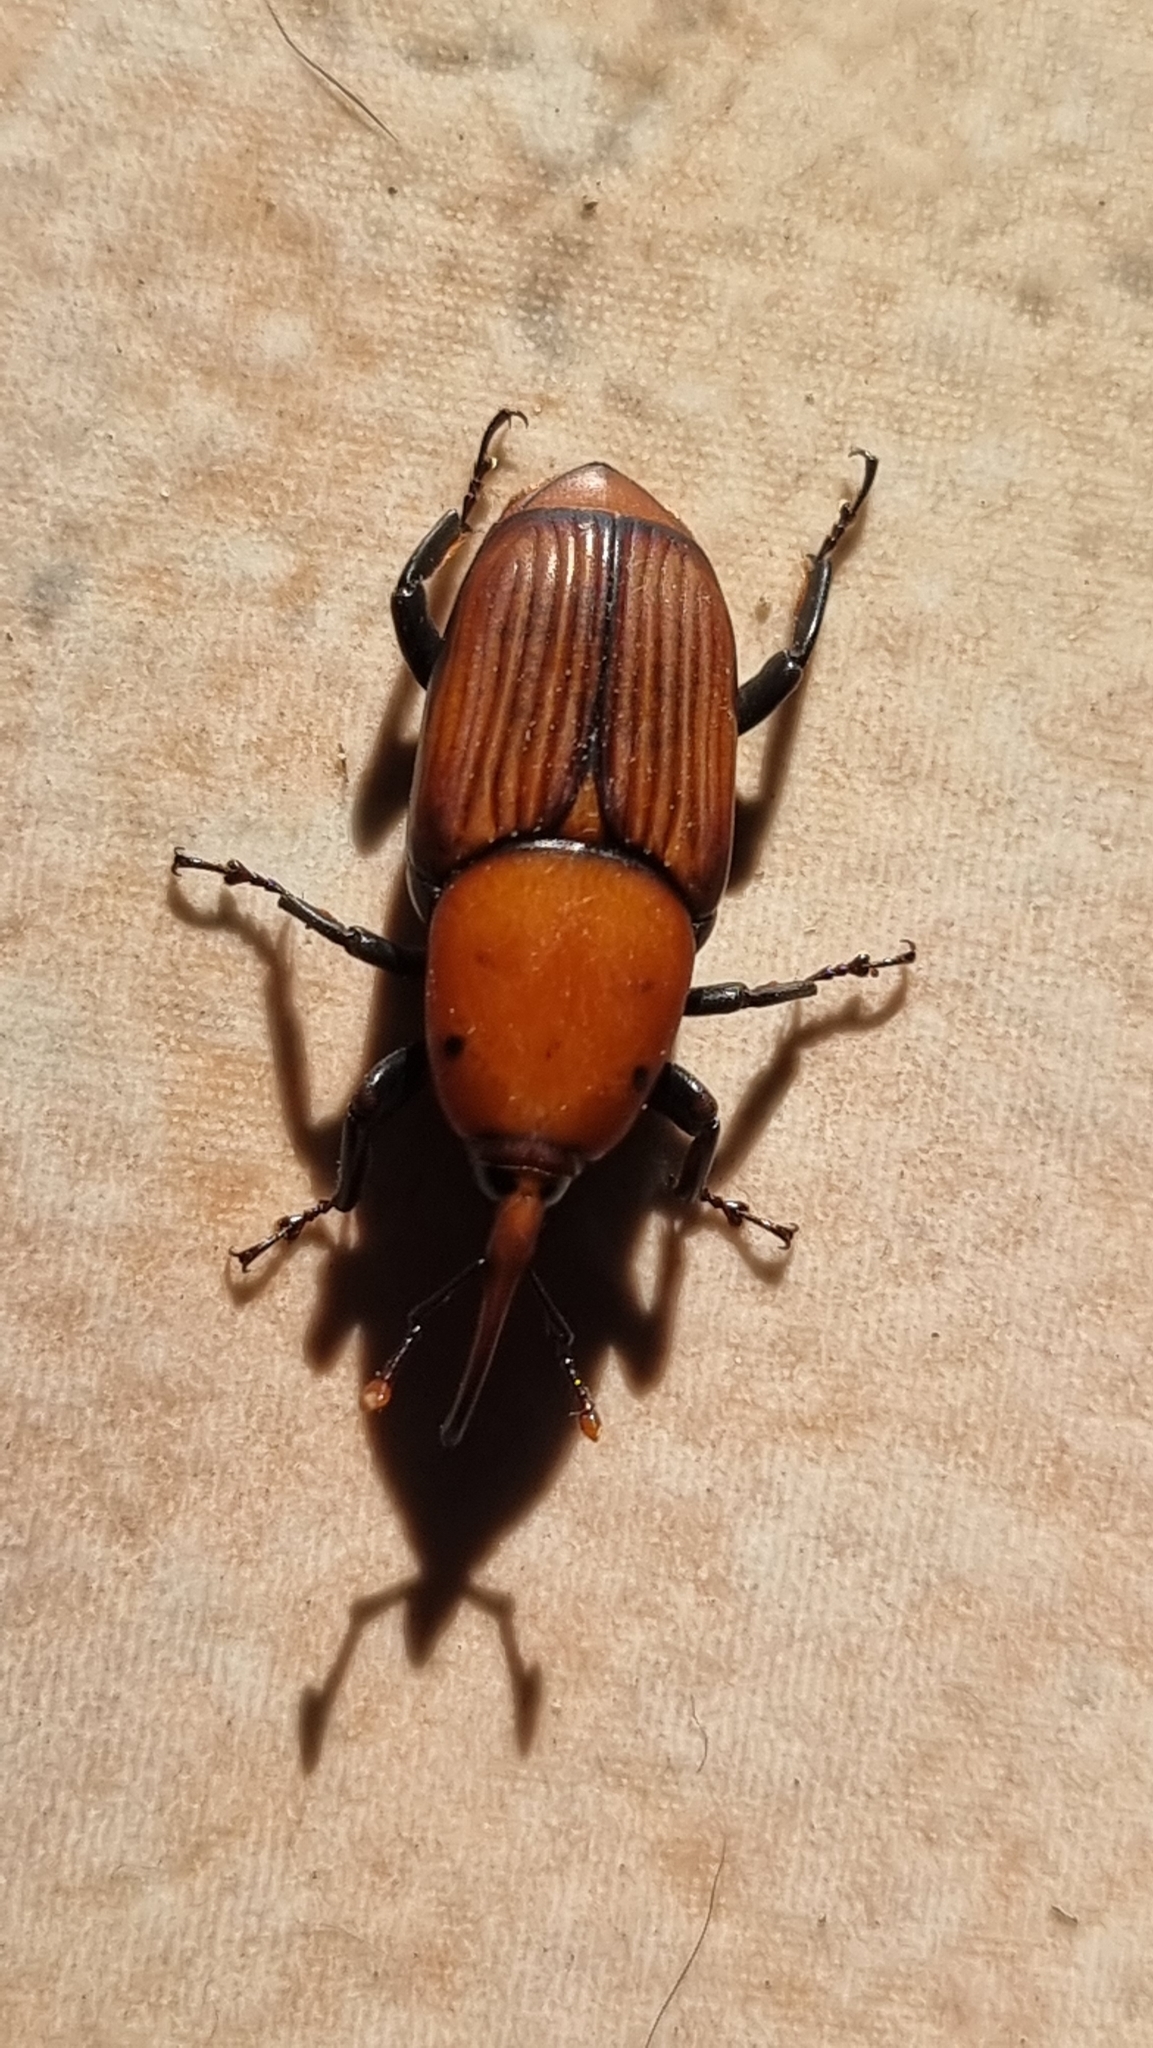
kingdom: Animalia
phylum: Arthropoda
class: Insecta
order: Coleoptera
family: Dryophthoridae
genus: Rhynchophorus
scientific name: Rhynchophorus ferrugineus
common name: Red palm weevil
